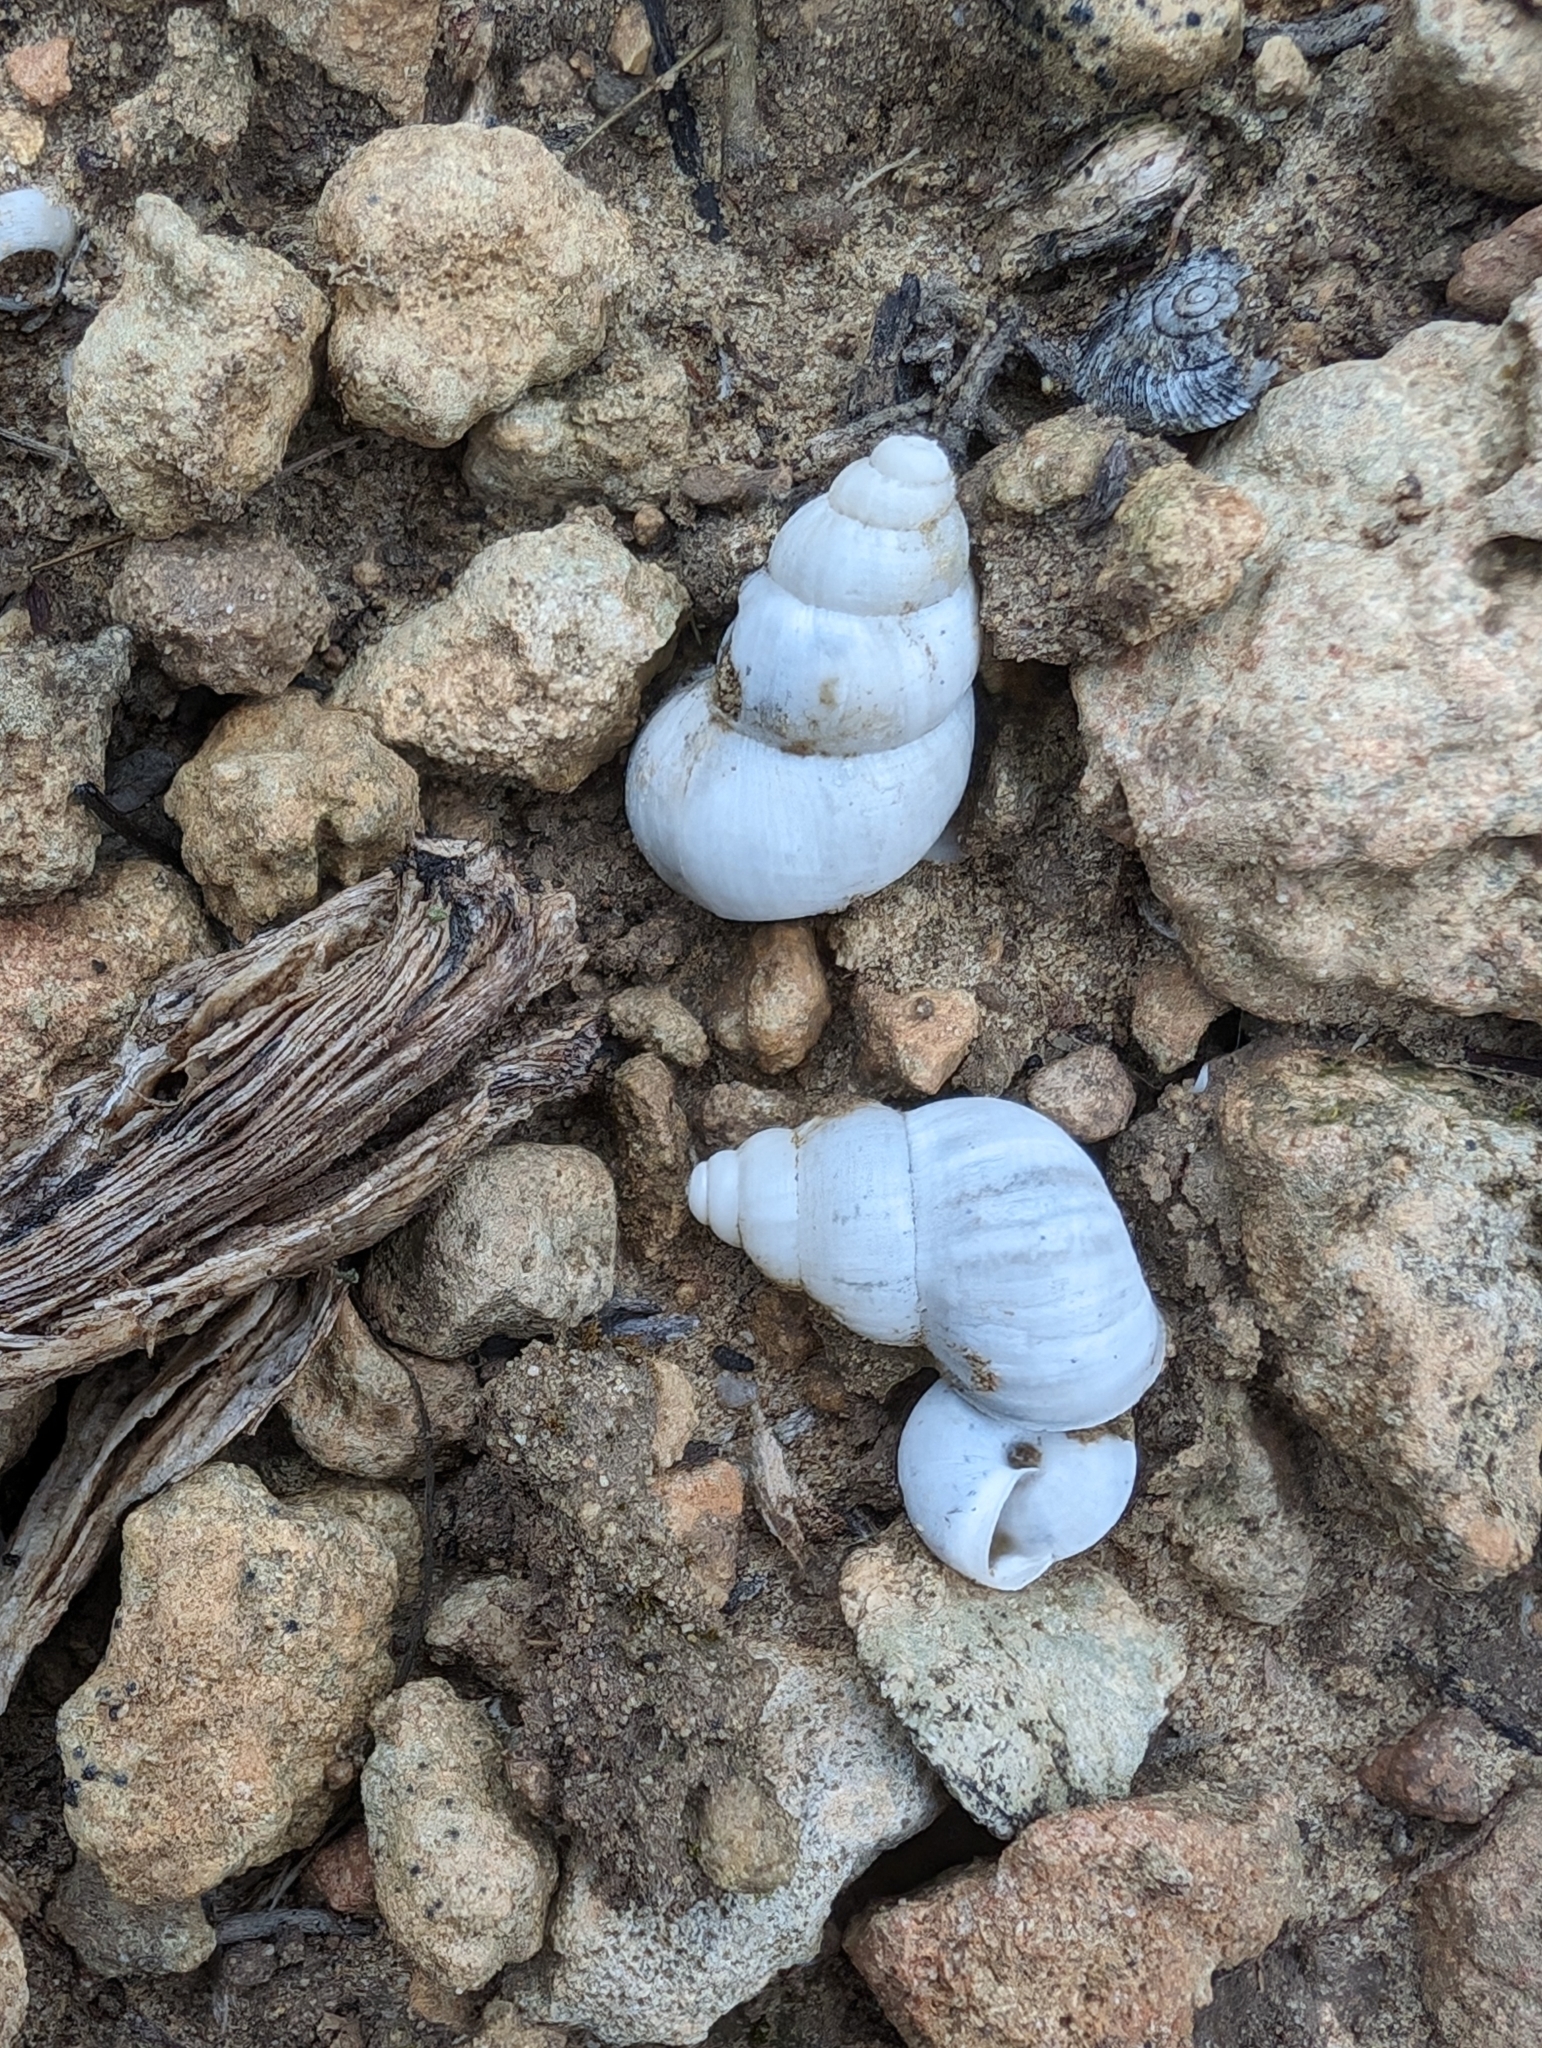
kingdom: Animalia
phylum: Mollusca
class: Gastropoda
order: Littorinimorpha
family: Pomatiidae
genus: Leonia
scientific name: Leonia mammillaris
